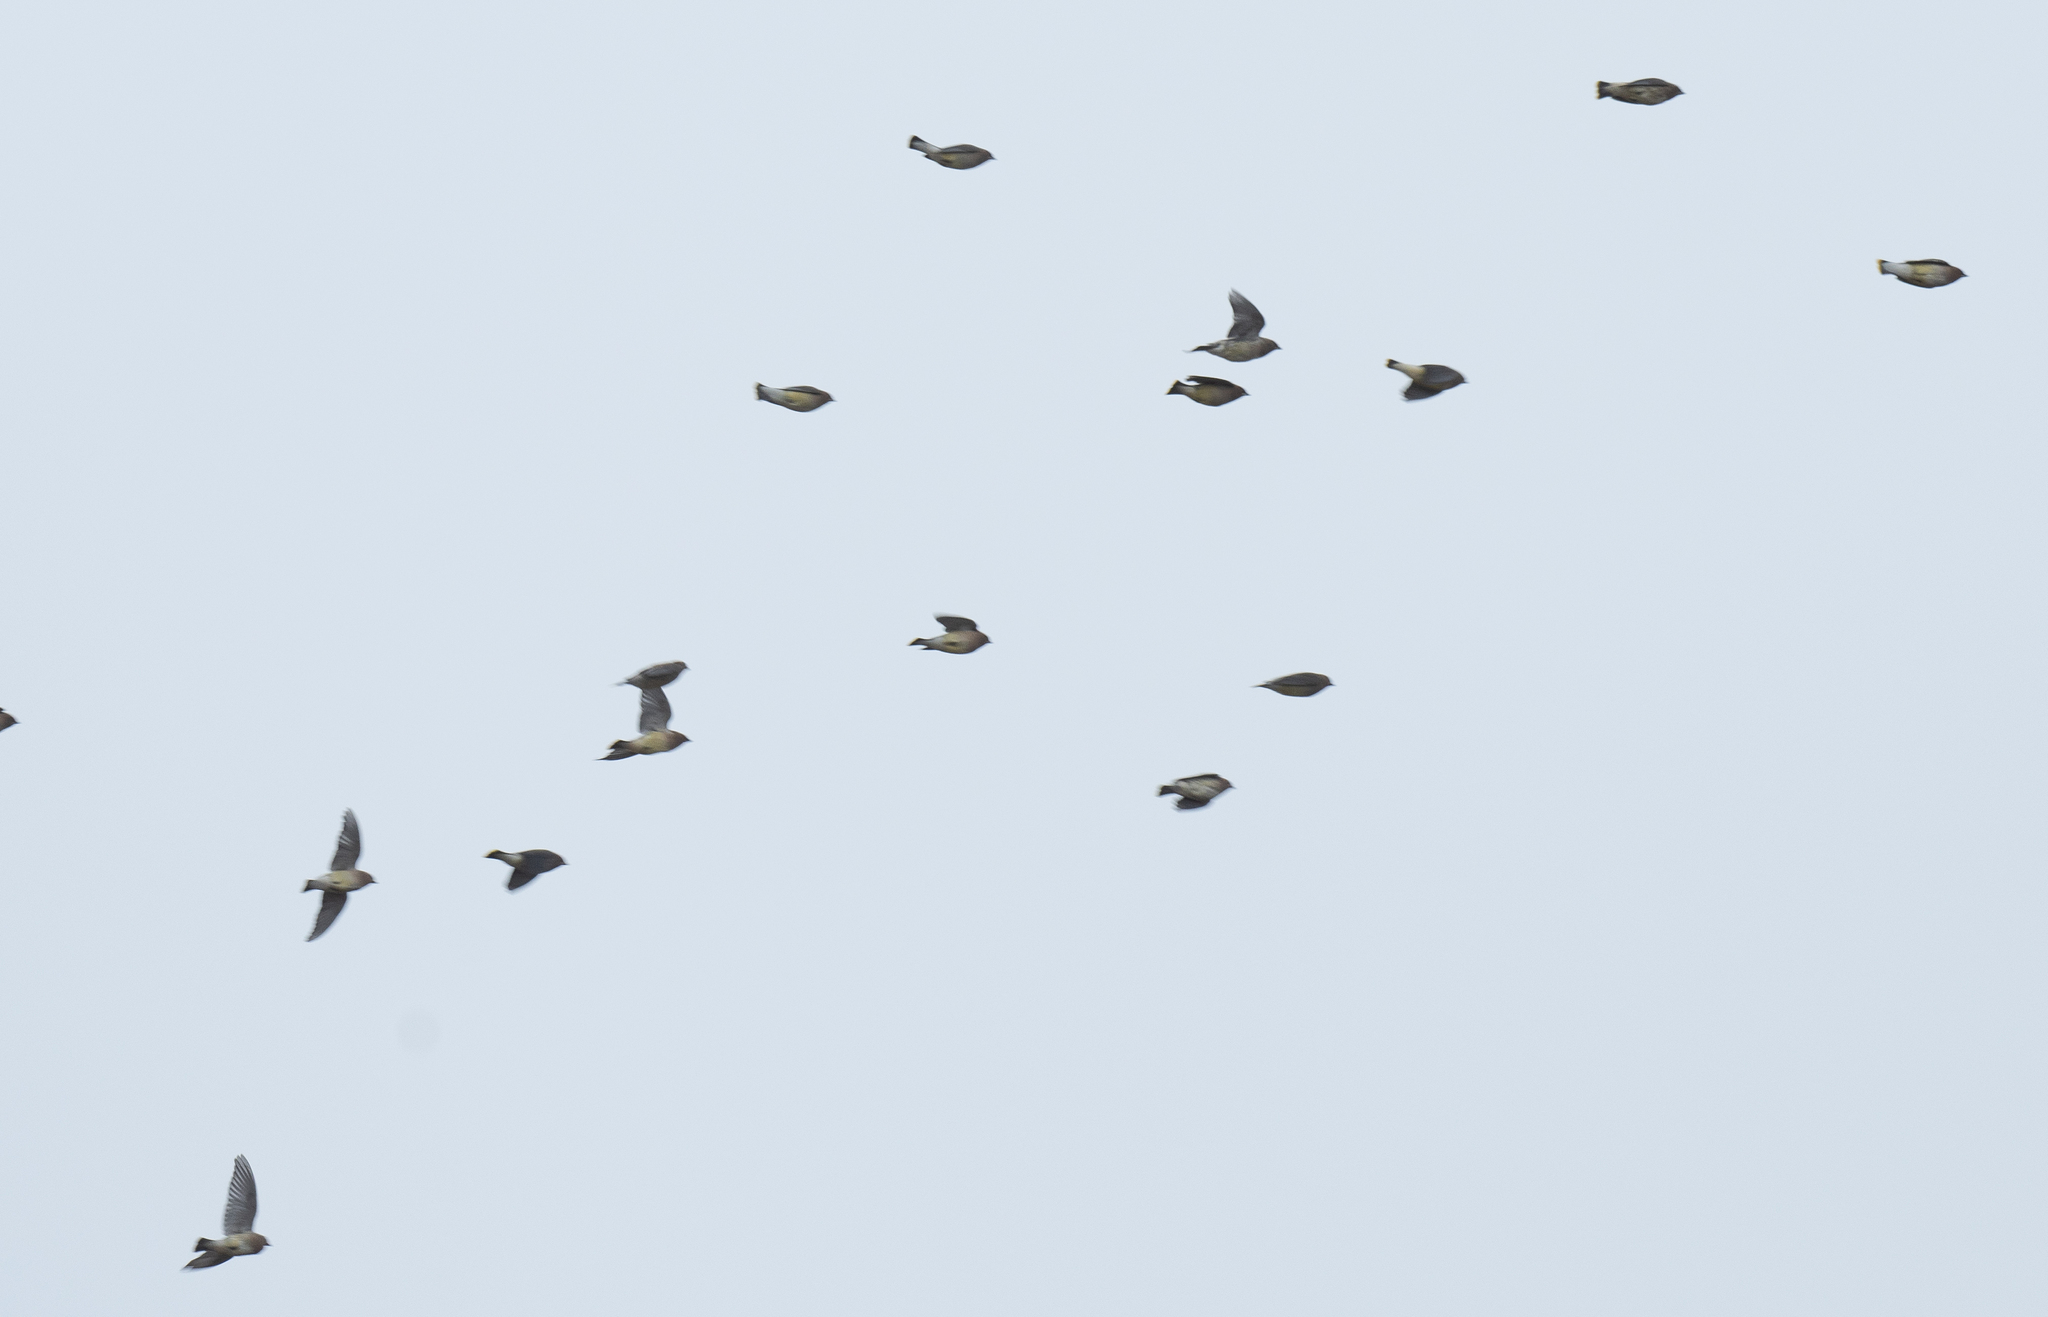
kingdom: Animalia
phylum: Chordata
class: Aves
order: Passeriformes
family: Bombycillidae
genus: Bombycilla
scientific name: Bombycilla cedrorum
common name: Cedar waxwing
